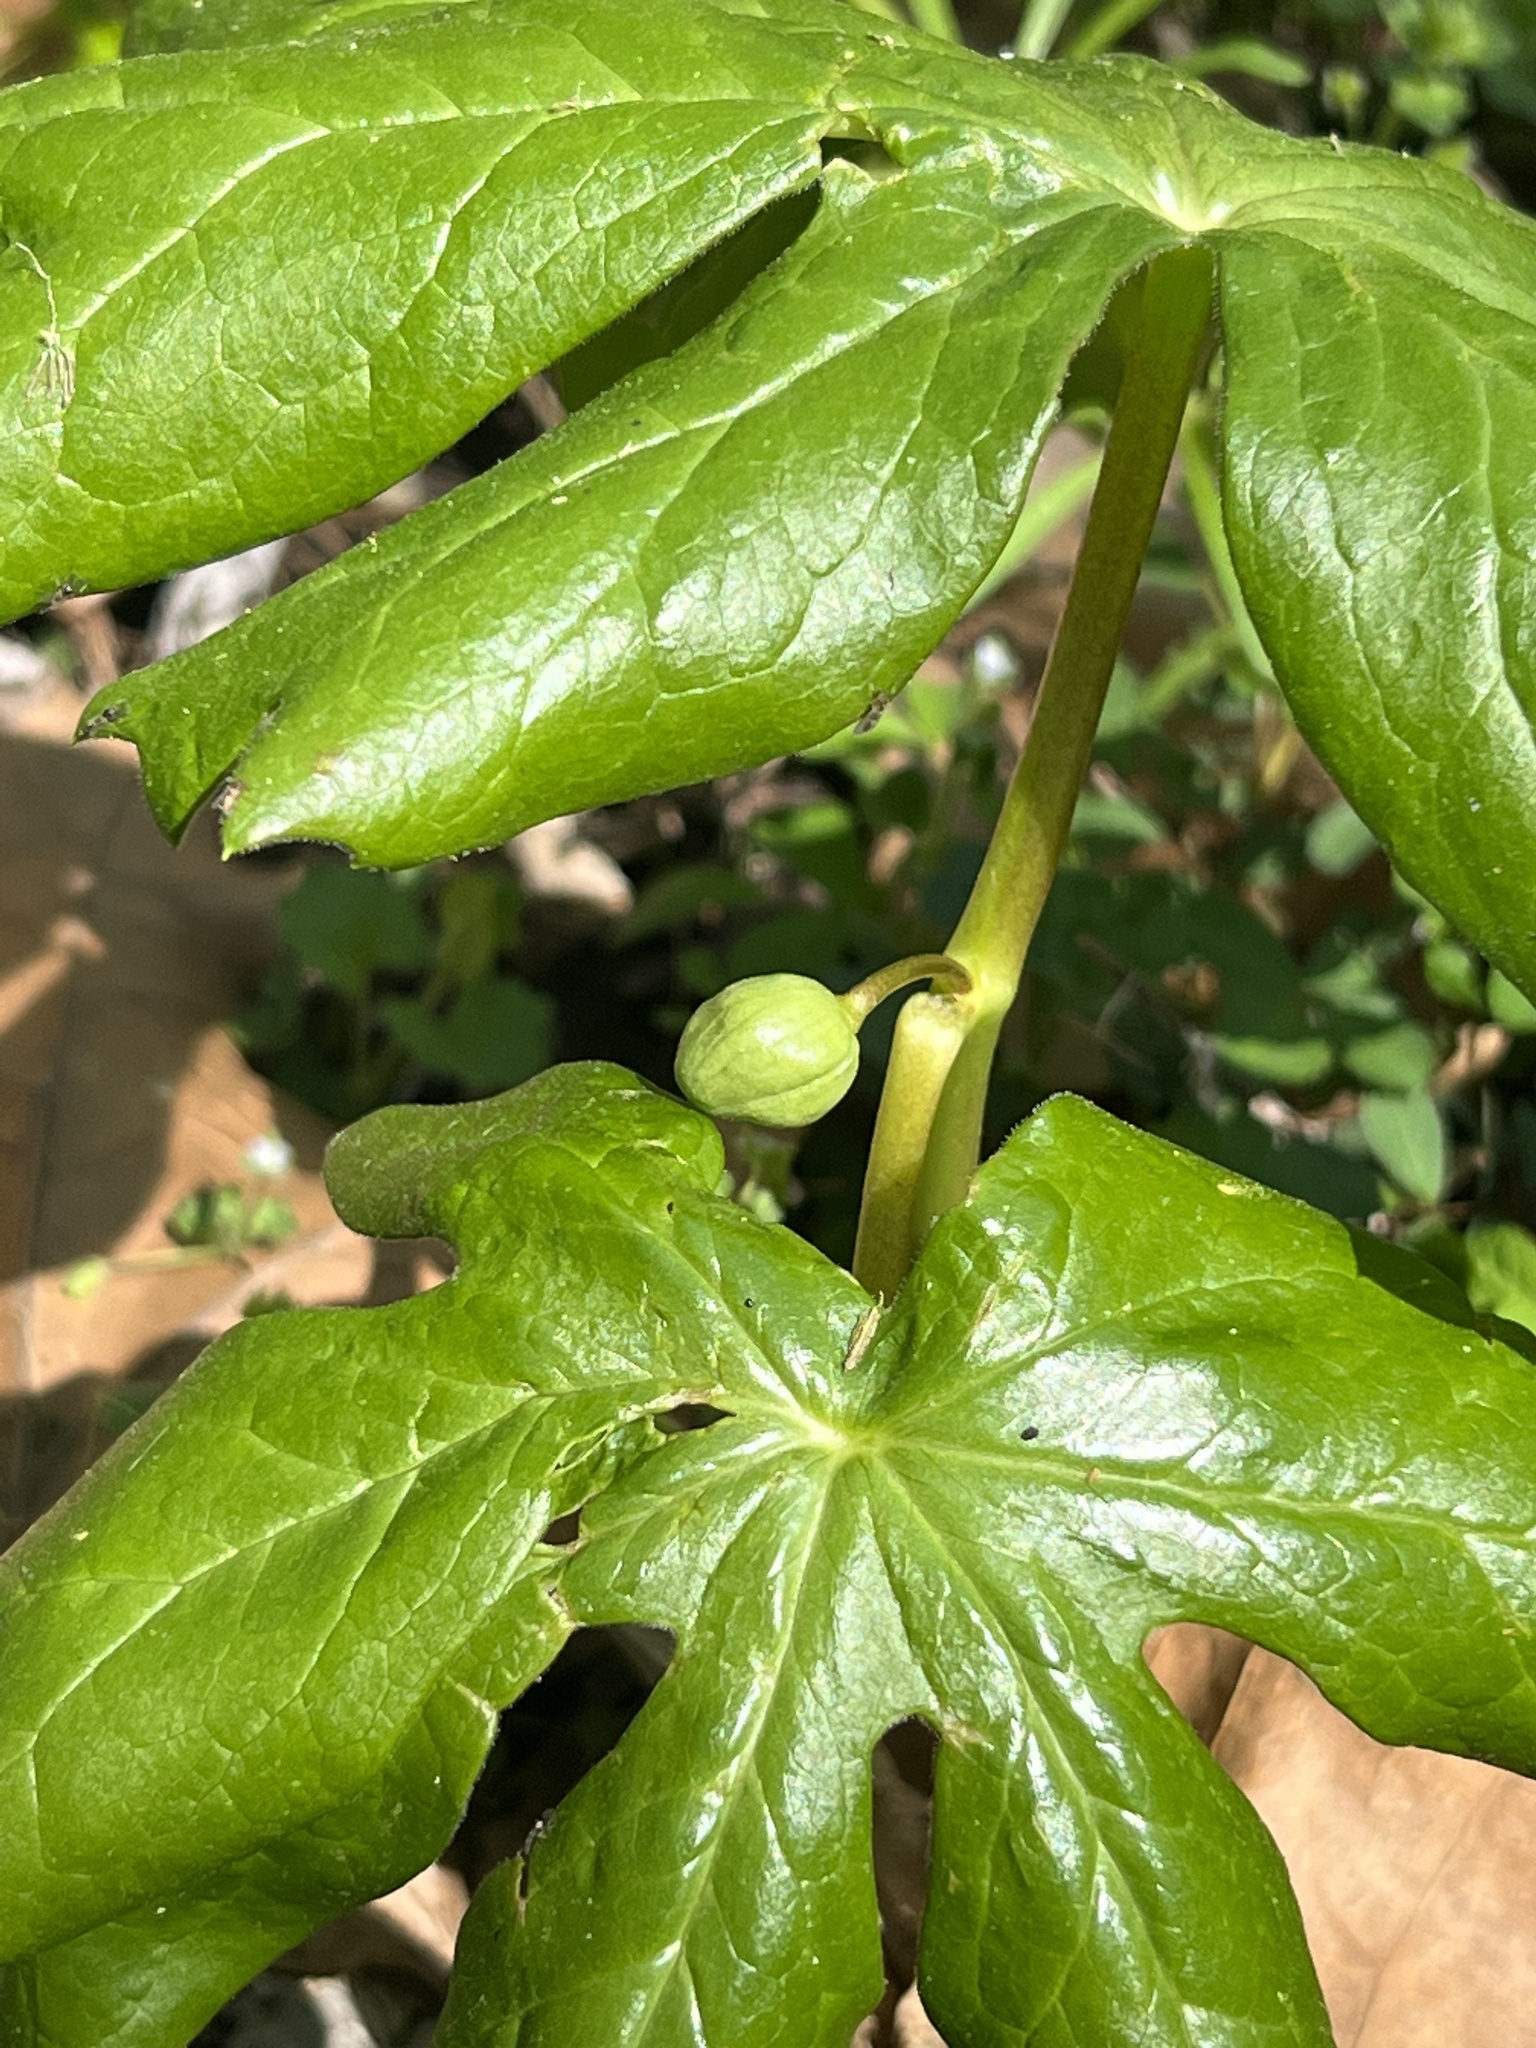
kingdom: Plantae
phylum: Tracheophyta
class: Magnoliopsida
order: Ranunculales
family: Berberidaceae
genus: Podophyllum
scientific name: Podophyllum peltatum
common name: Wild mandrake
